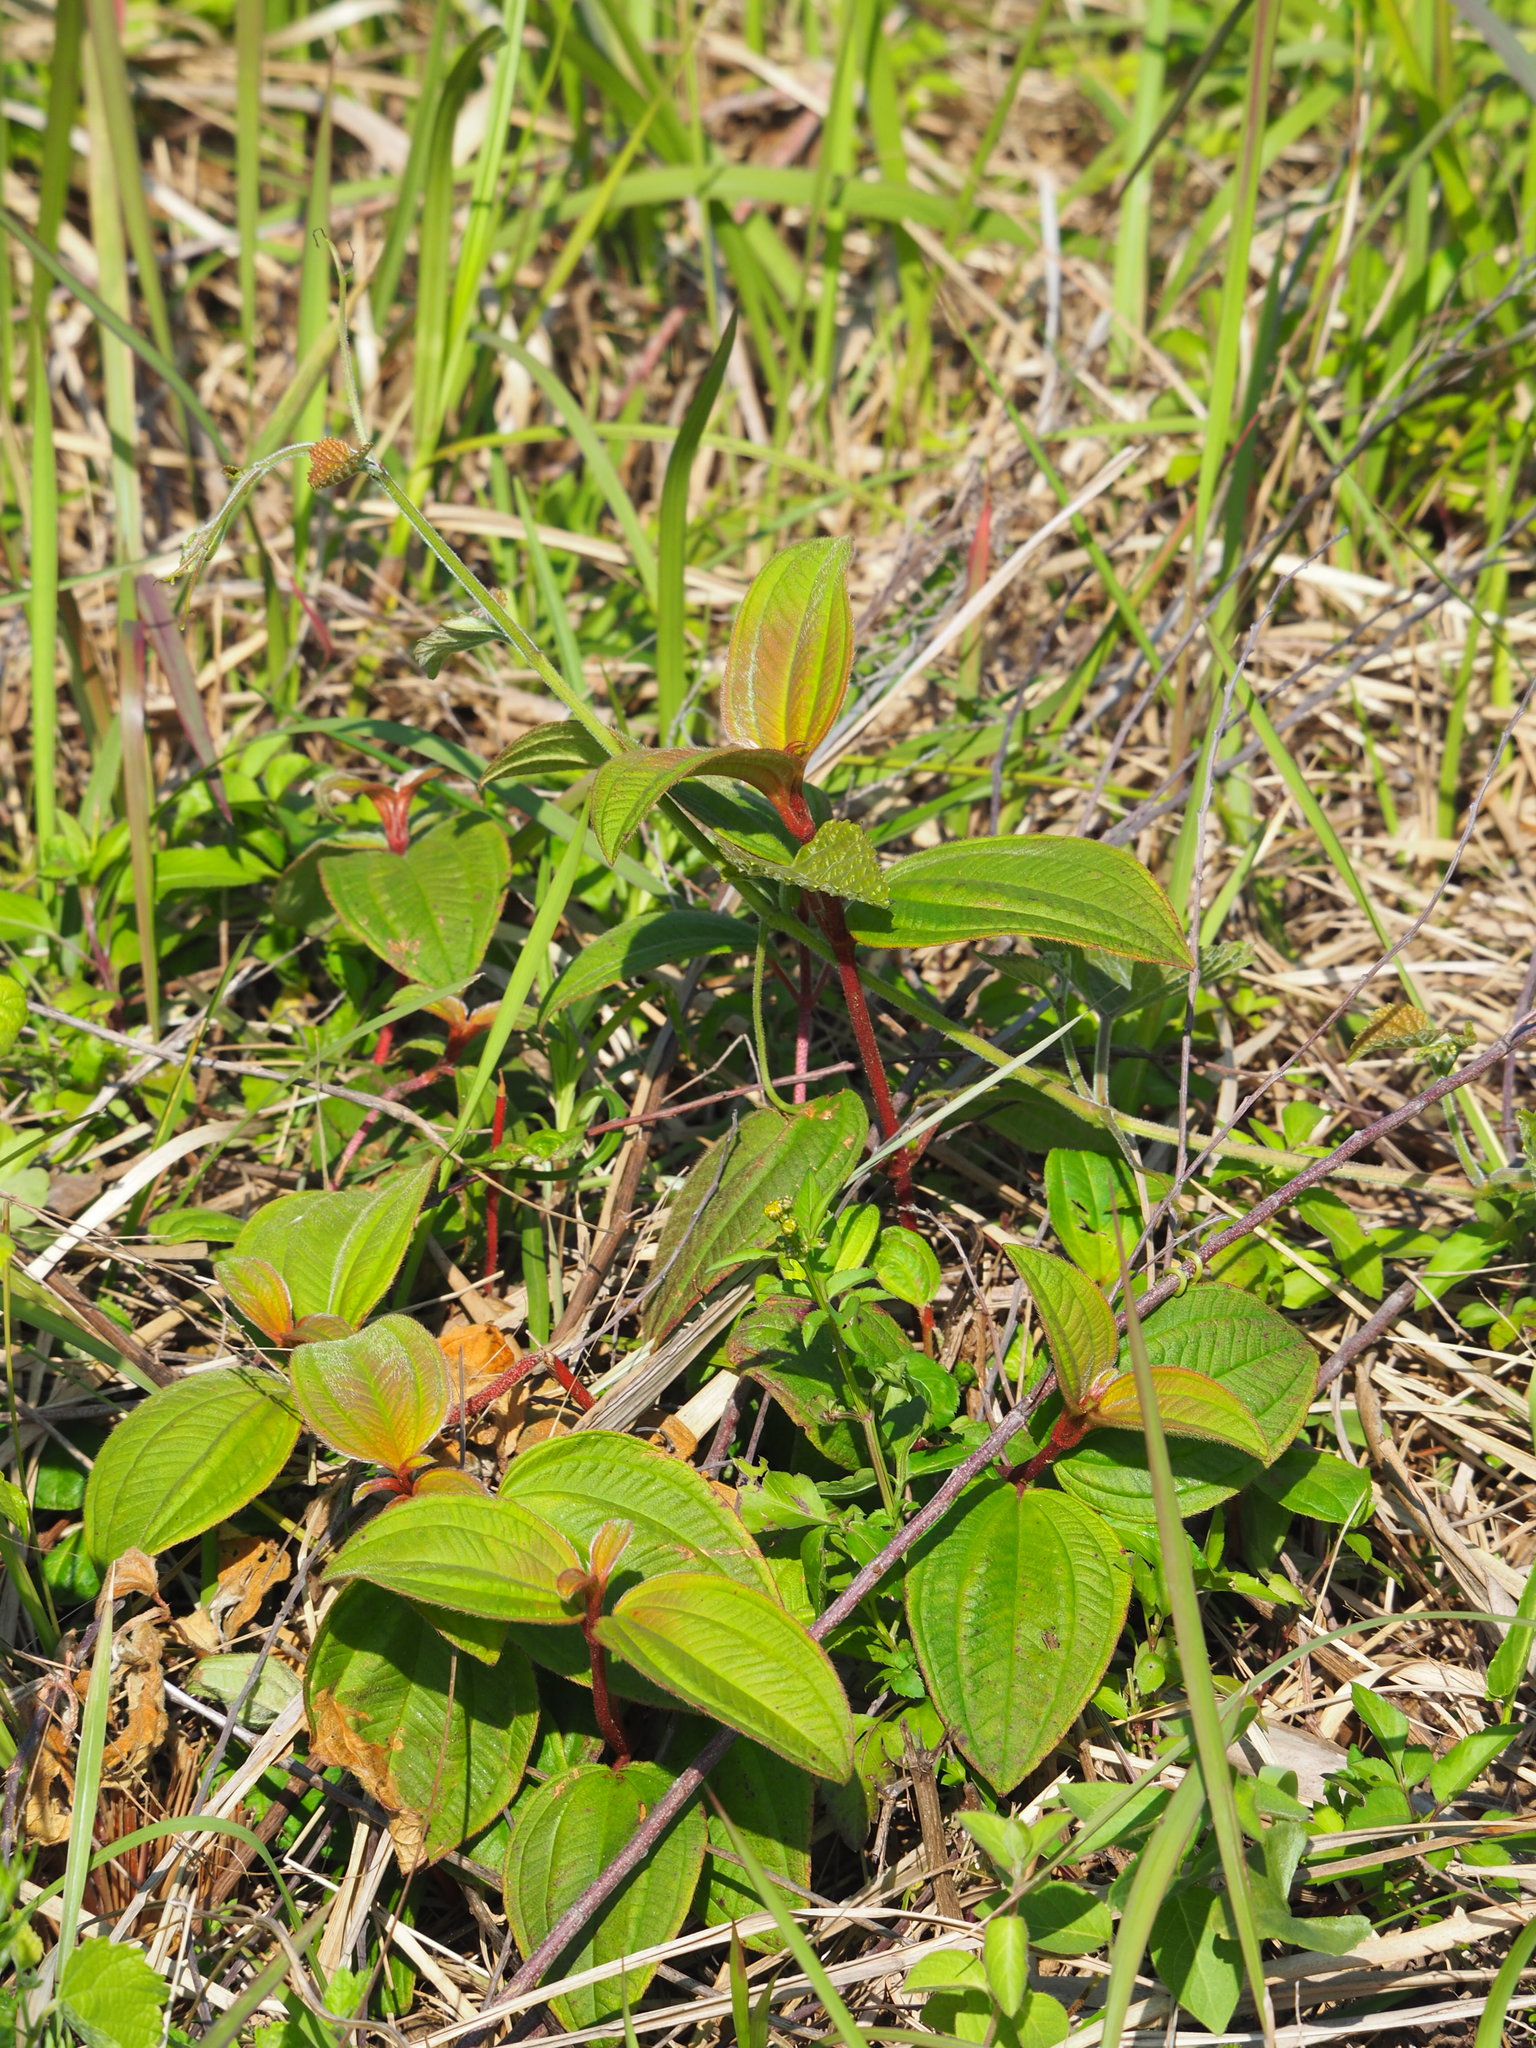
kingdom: Plantae
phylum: Tracheophyta
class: Magnoliopsida
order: Myrtales
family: Melastomataceae
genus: Melastoma
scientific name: Melastoma malabathricum
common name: Indian-rhododendron
